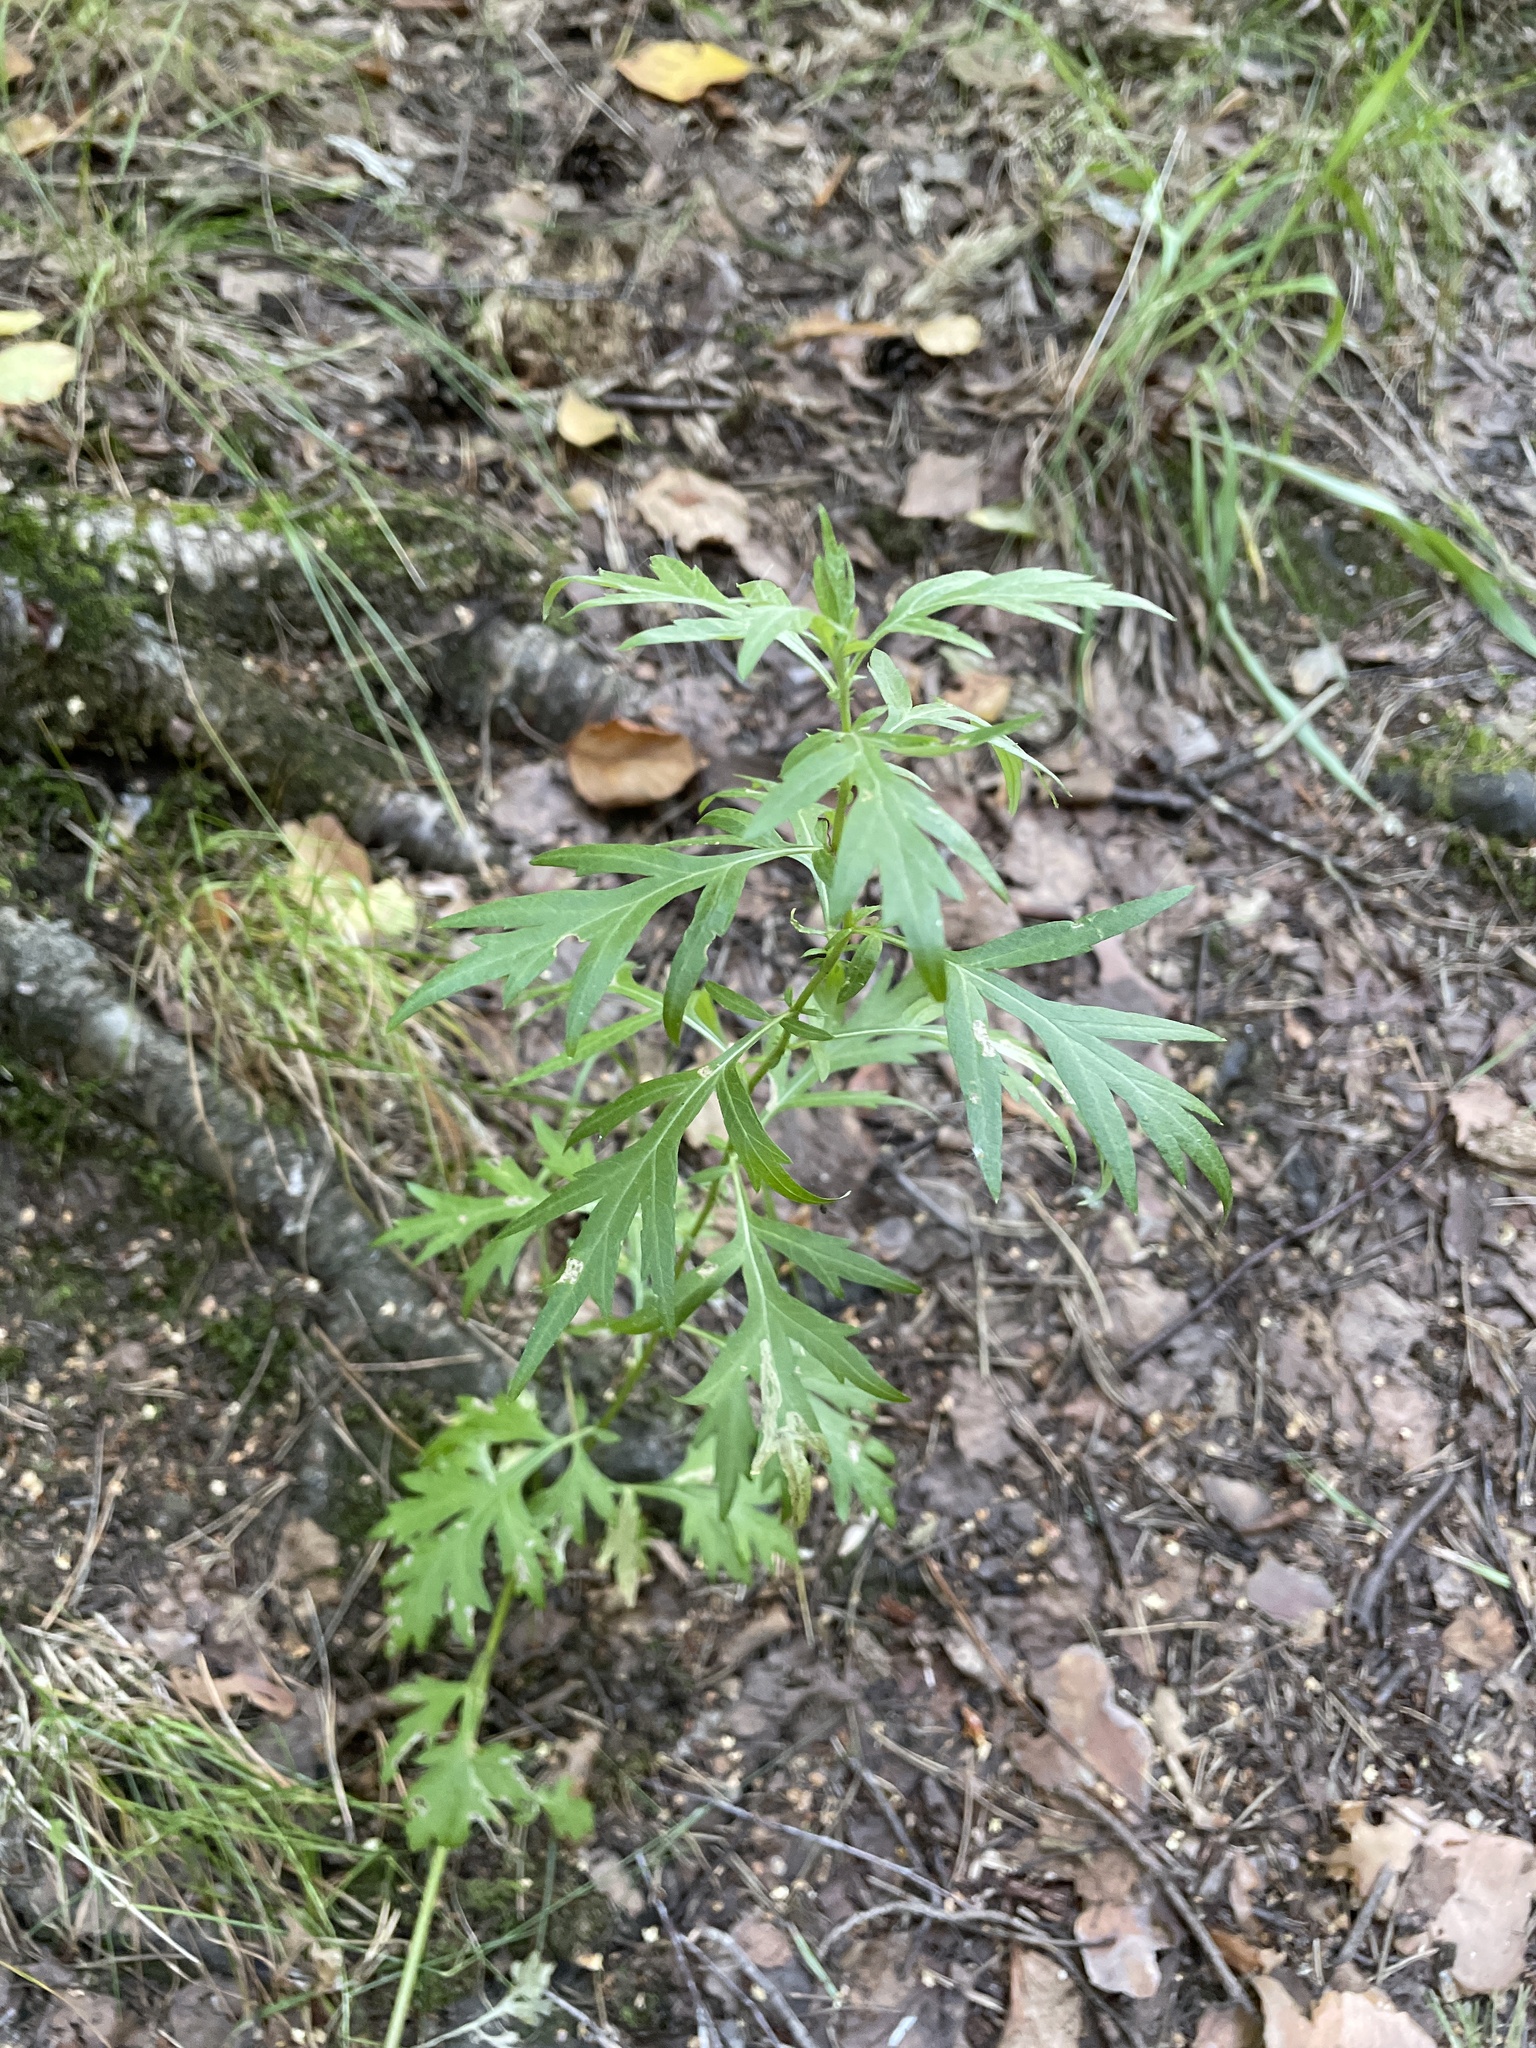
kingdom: Plantae
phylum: Tracheophyta
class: Magnoliopsida
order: Asterales
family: Asteraceae
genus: Artemisia
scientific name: Artemisia vulgaris
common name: Mugwort
